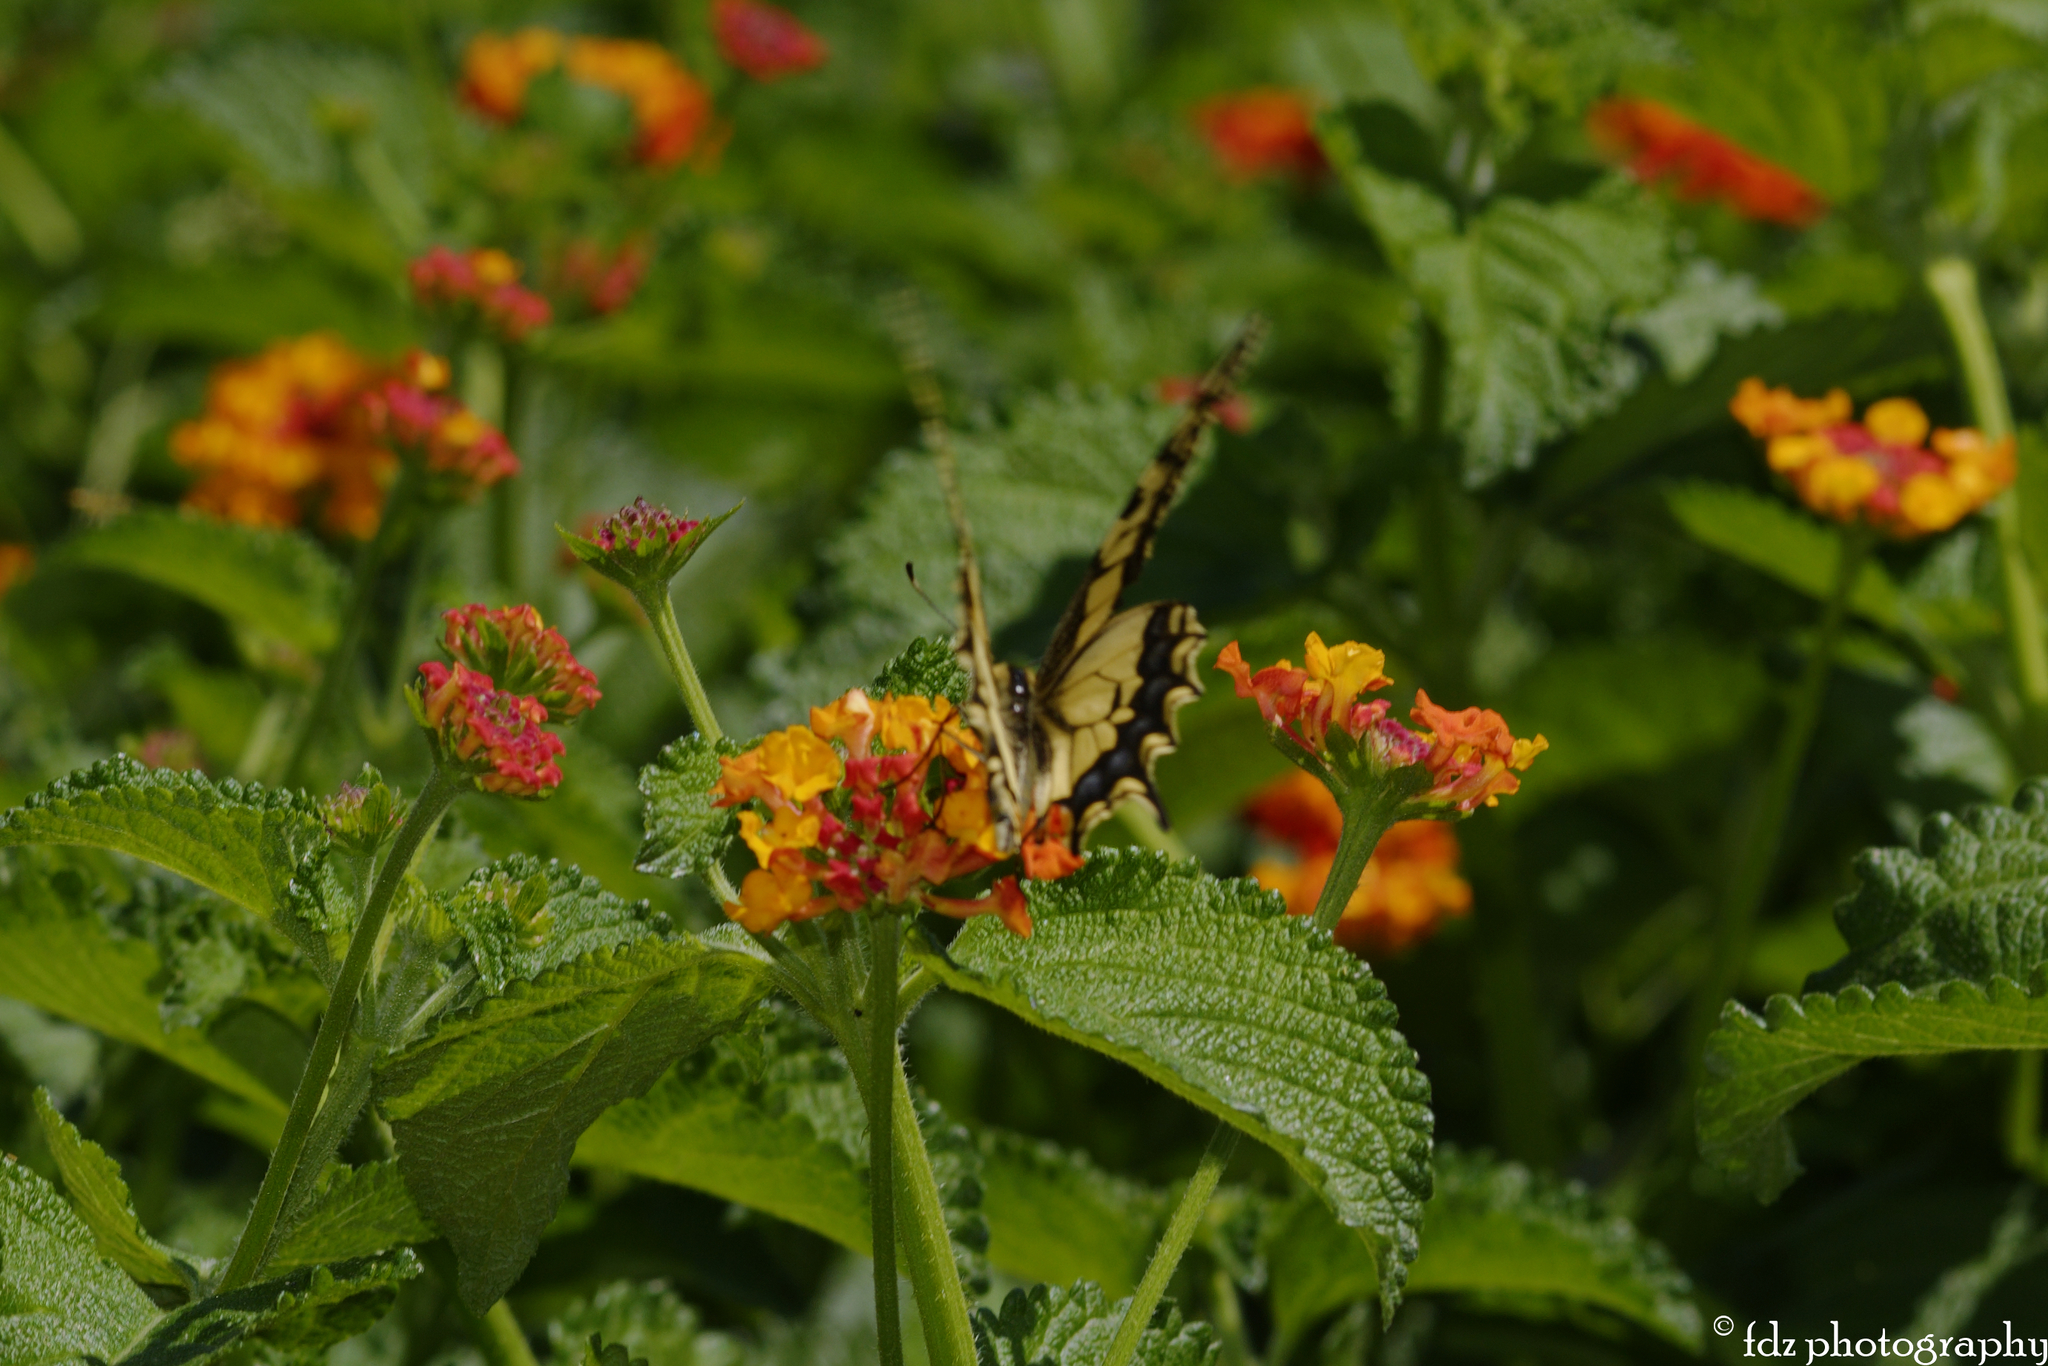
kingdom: Animalia
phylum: Arthropoda
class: Insecta
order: Lepidoptera
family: Papilionidae
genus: Papilio
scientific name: Papilio machaon
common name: Swallowtail
